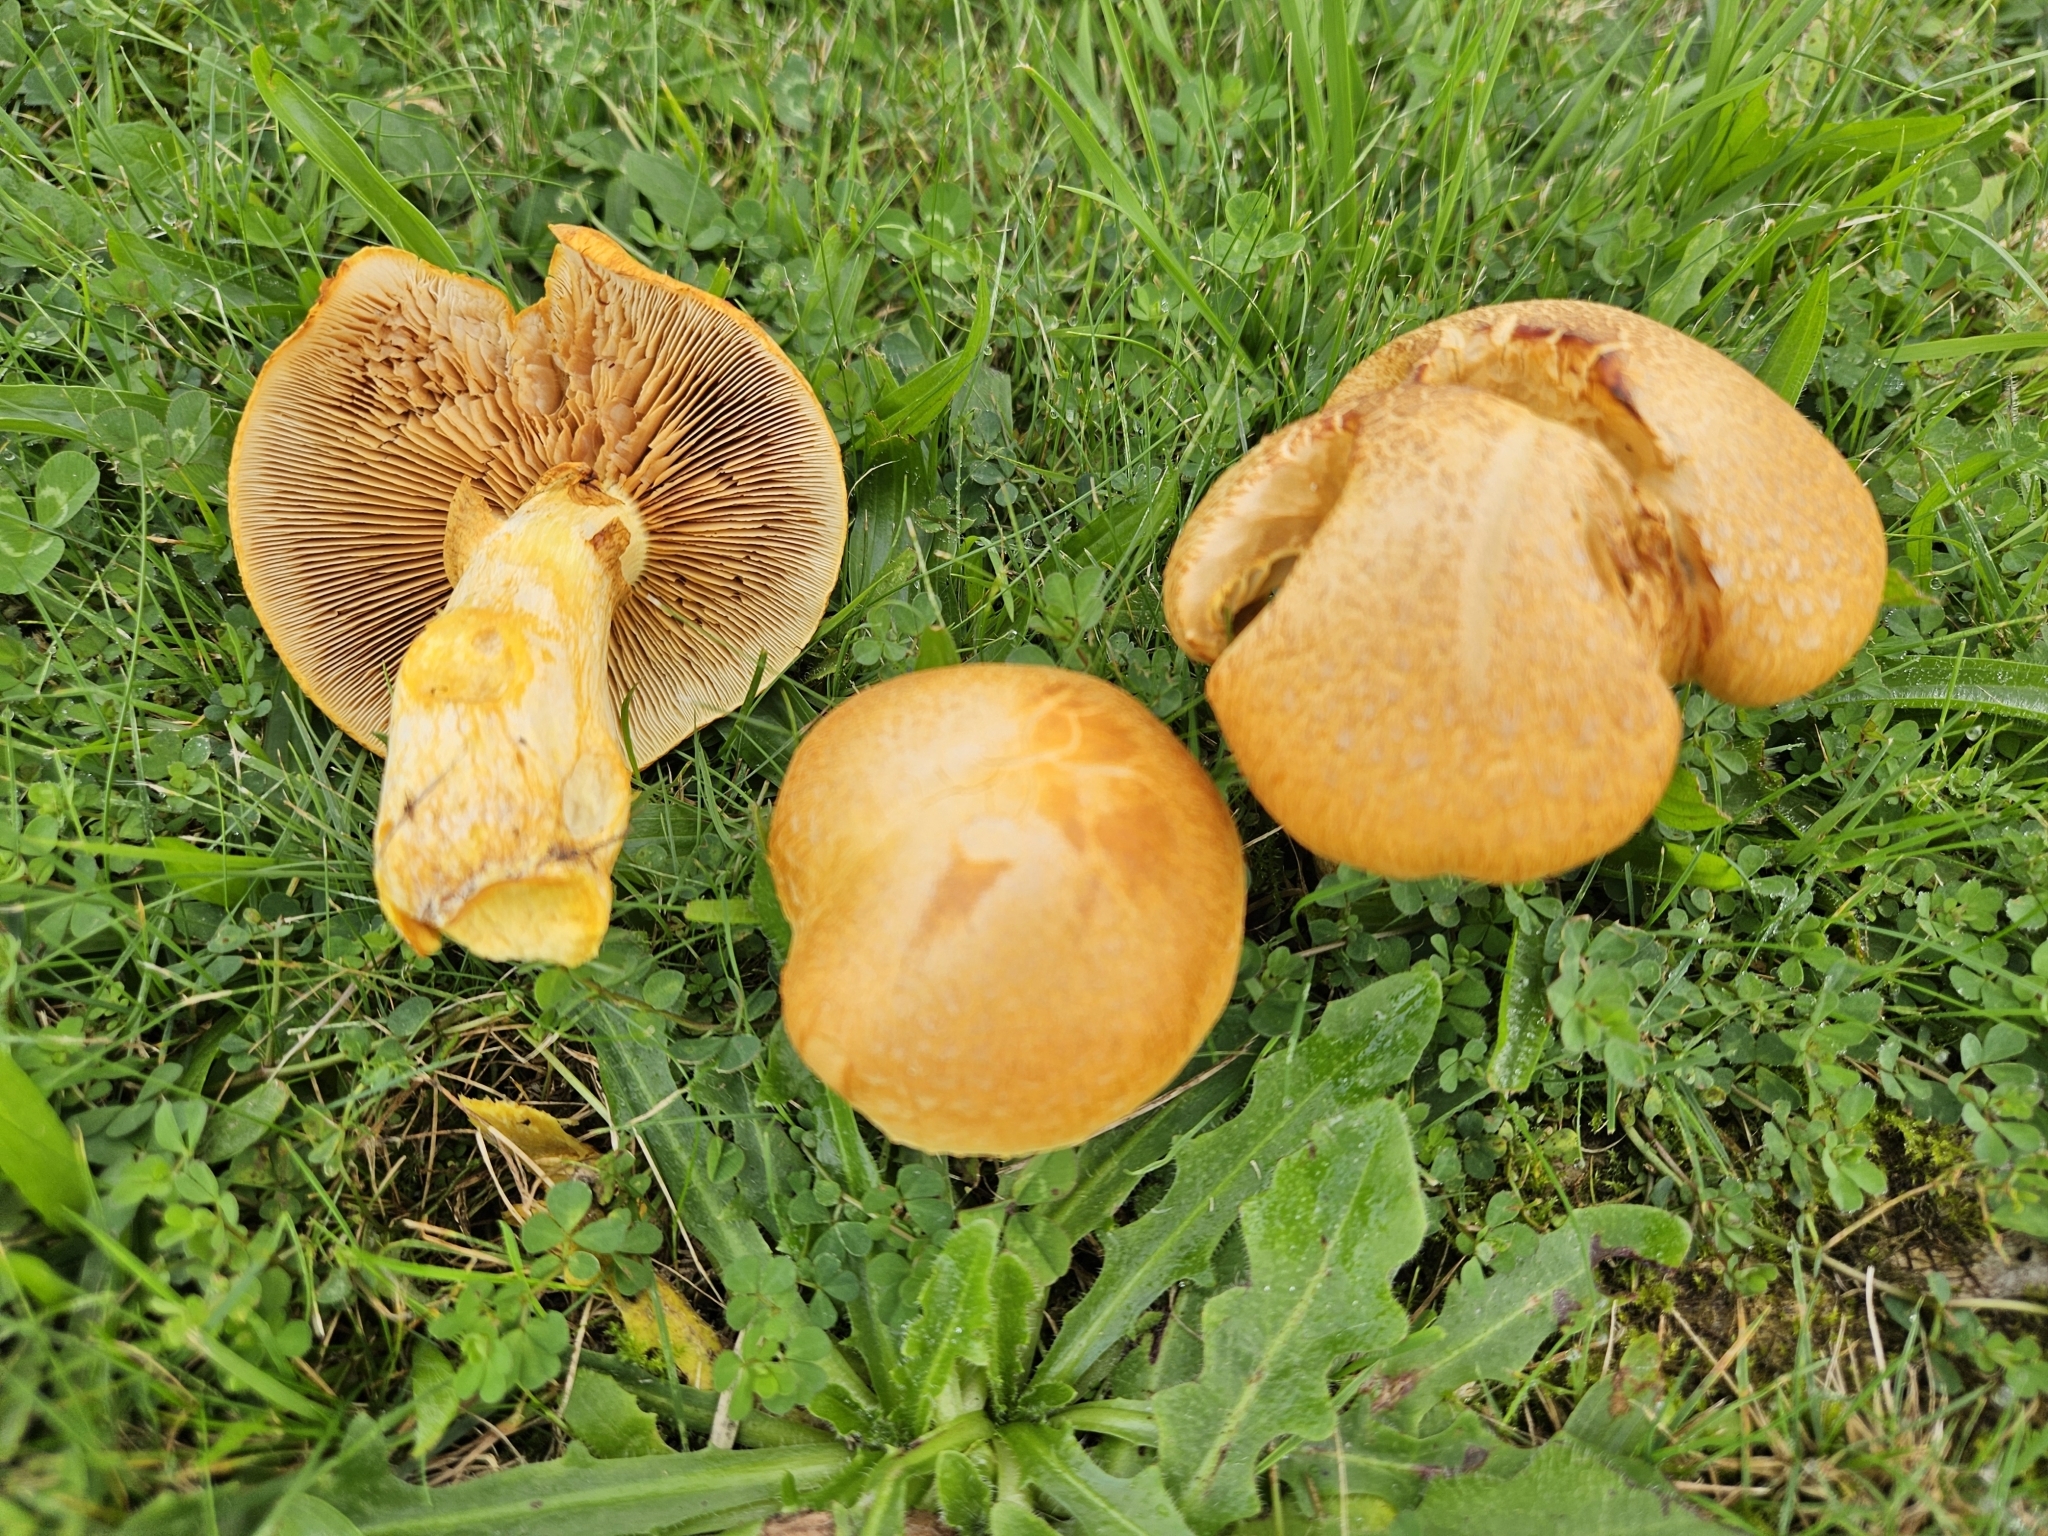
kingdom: Fungi
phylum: Basidiomycota
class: Agaricomycetes
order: Agaricales
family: Hymenogastraceae
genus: Gymnopilus
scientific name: Gymnopilus junonius
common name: Spectacular rustgill
